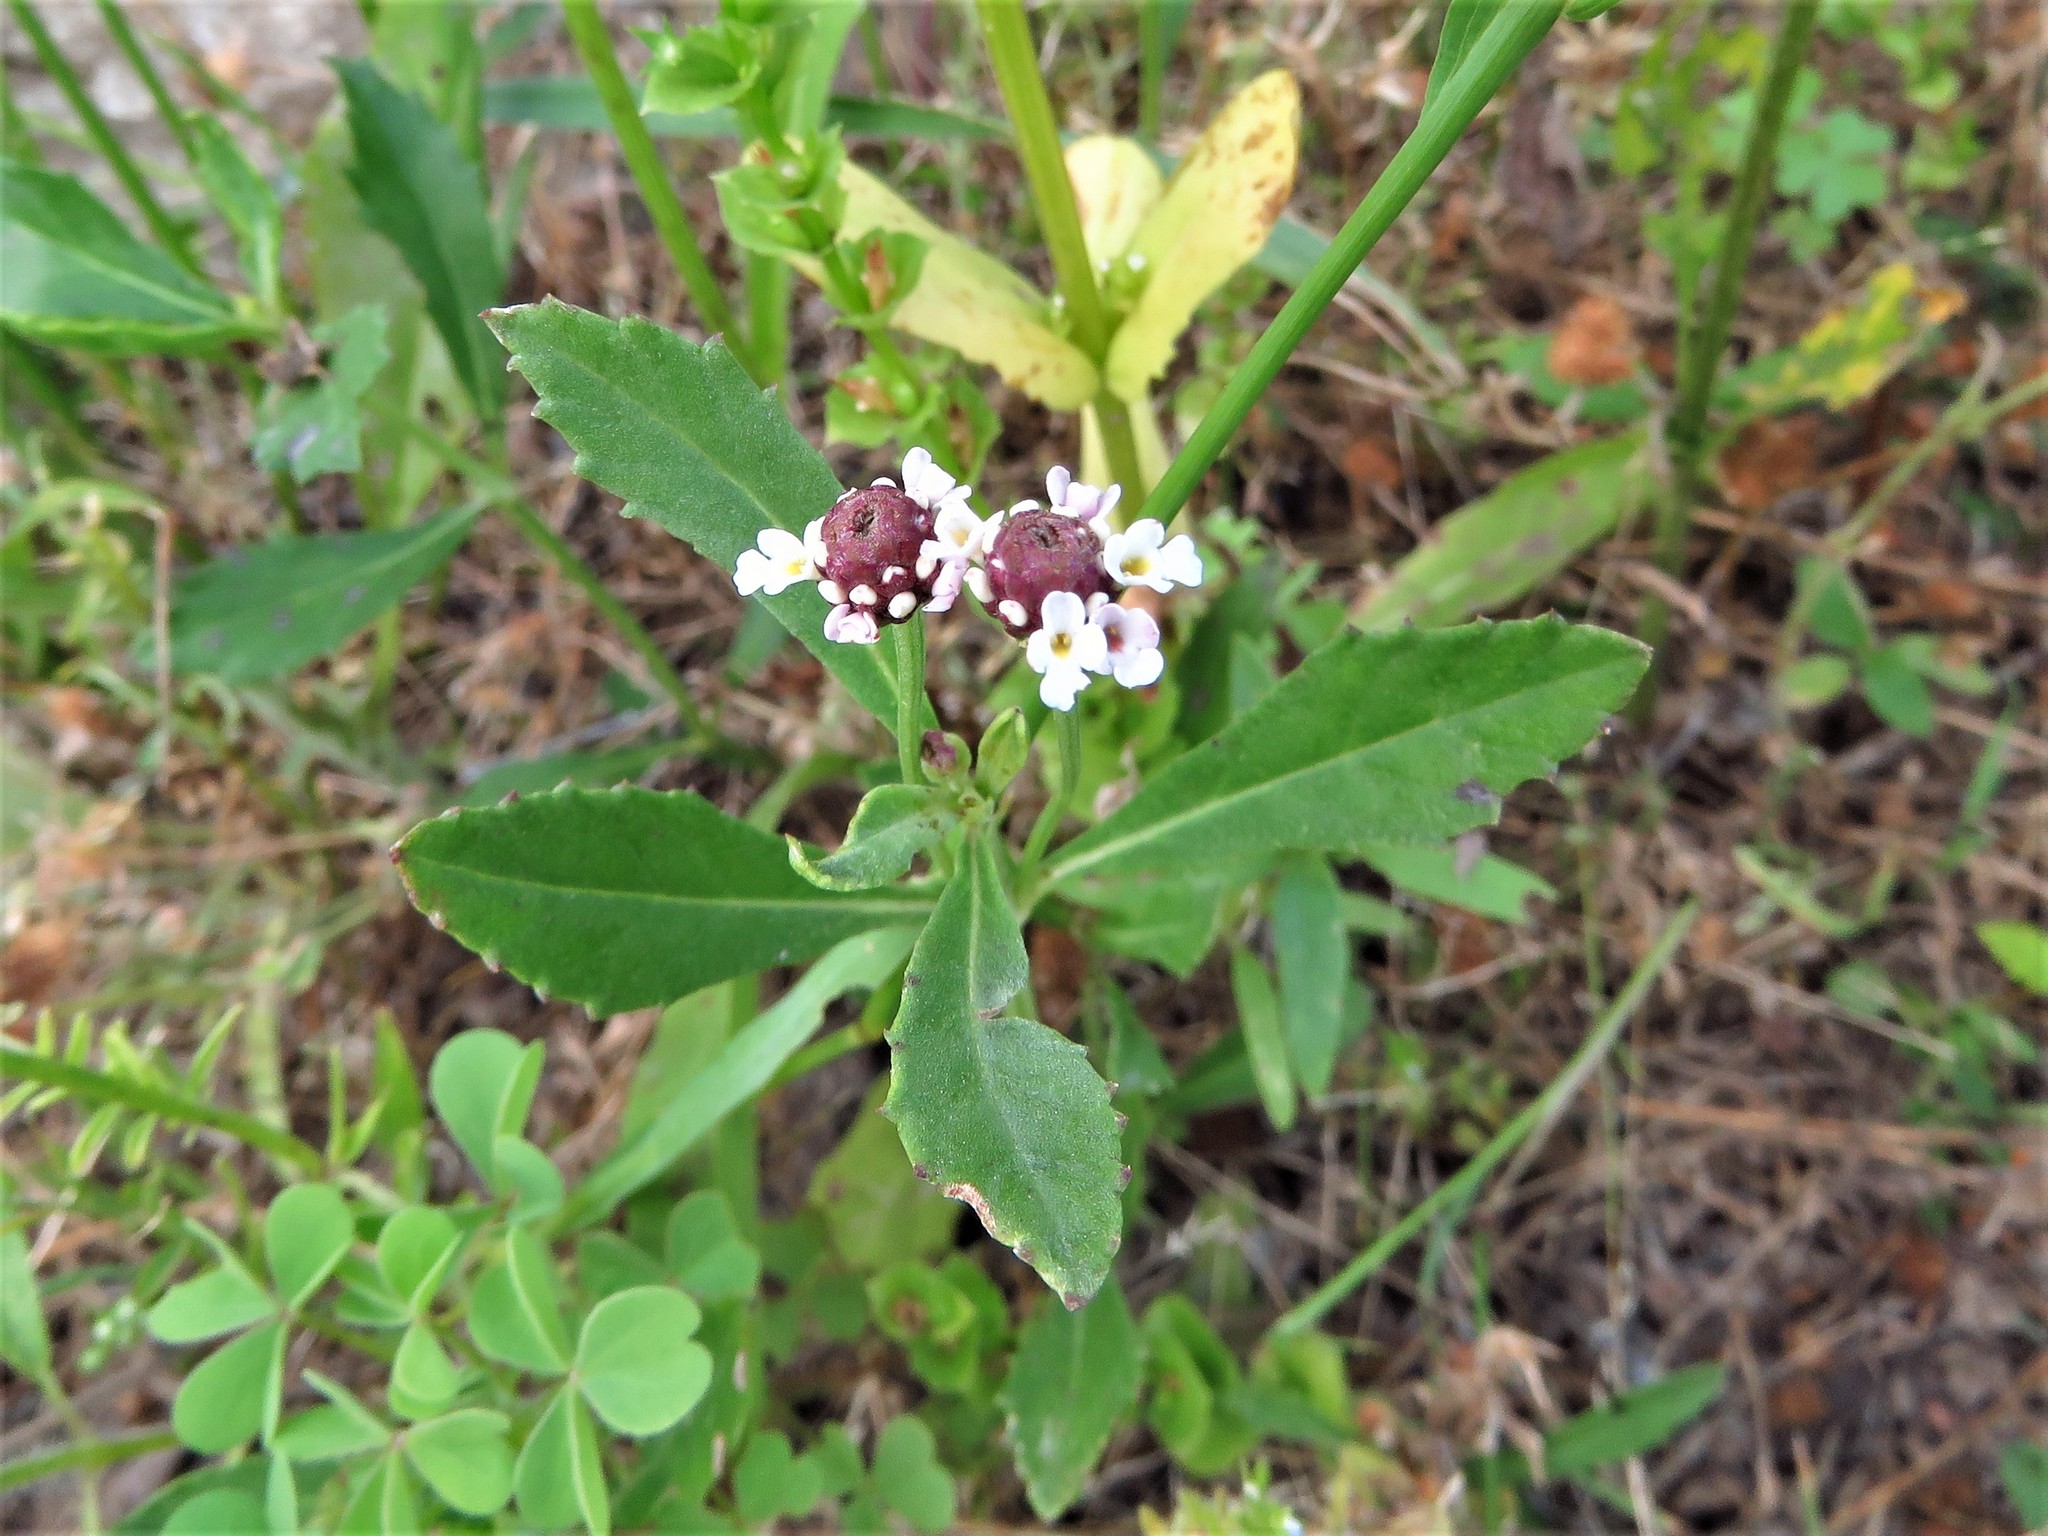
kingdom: Plantae
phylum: Tracheophyta
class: Magnoliopsida
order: Lamiales
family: Verbenaceae
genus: Phyla
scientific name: Phyla lanceolata
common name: Northern fogfruit
